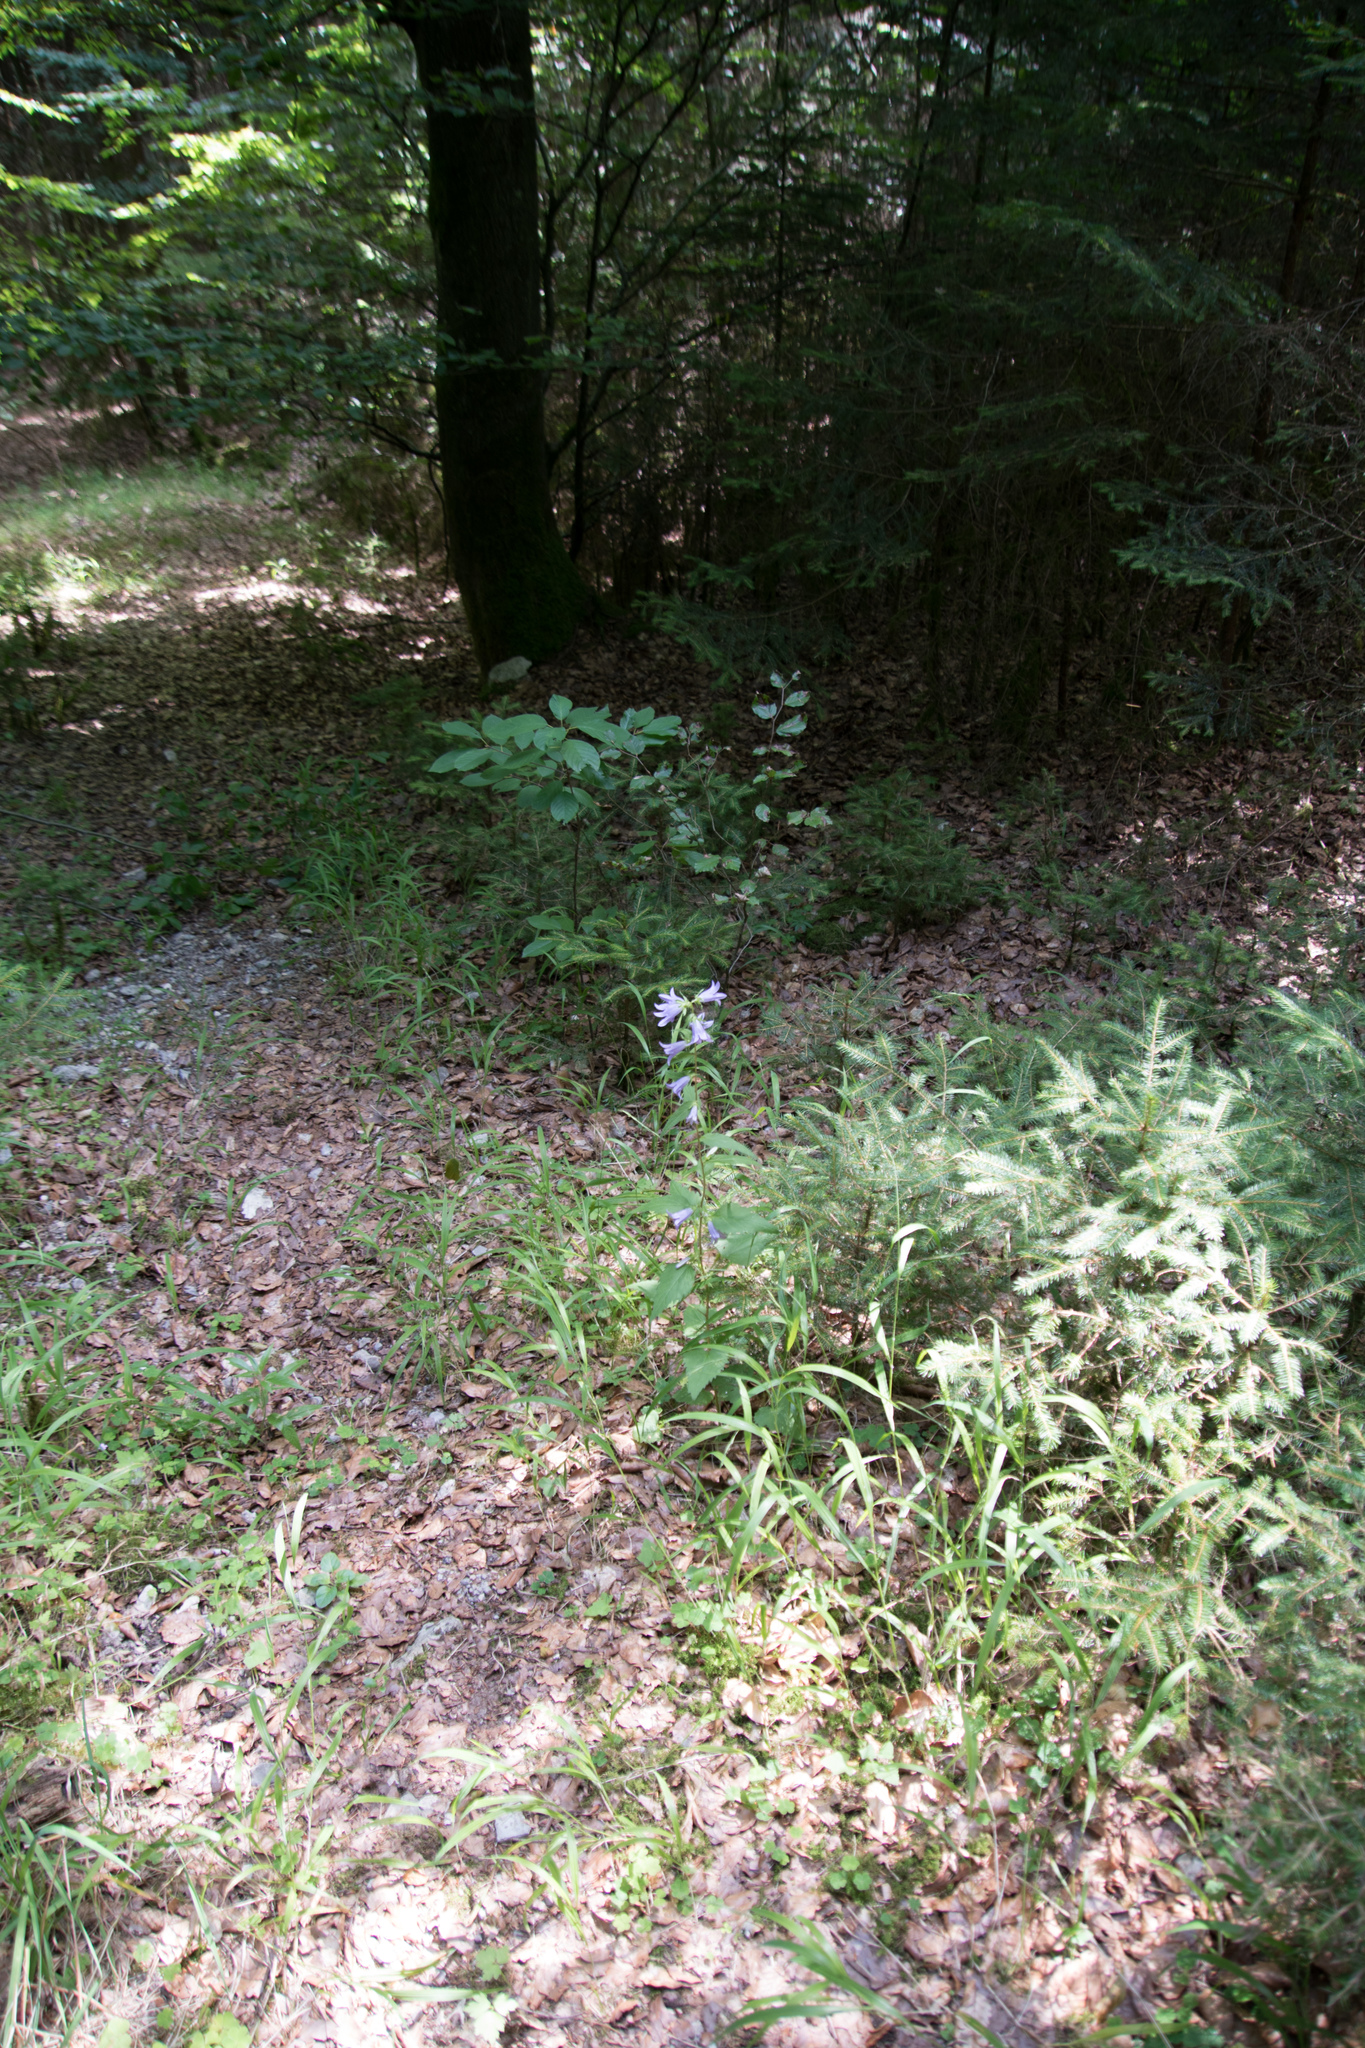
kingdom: Plantae
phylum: Tracheophyta
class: Magnoliopsida
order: Asterales
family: Campanulaceae
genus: Campanula
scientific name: Campanula trachelium
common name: Nettle-leaved bellflower
